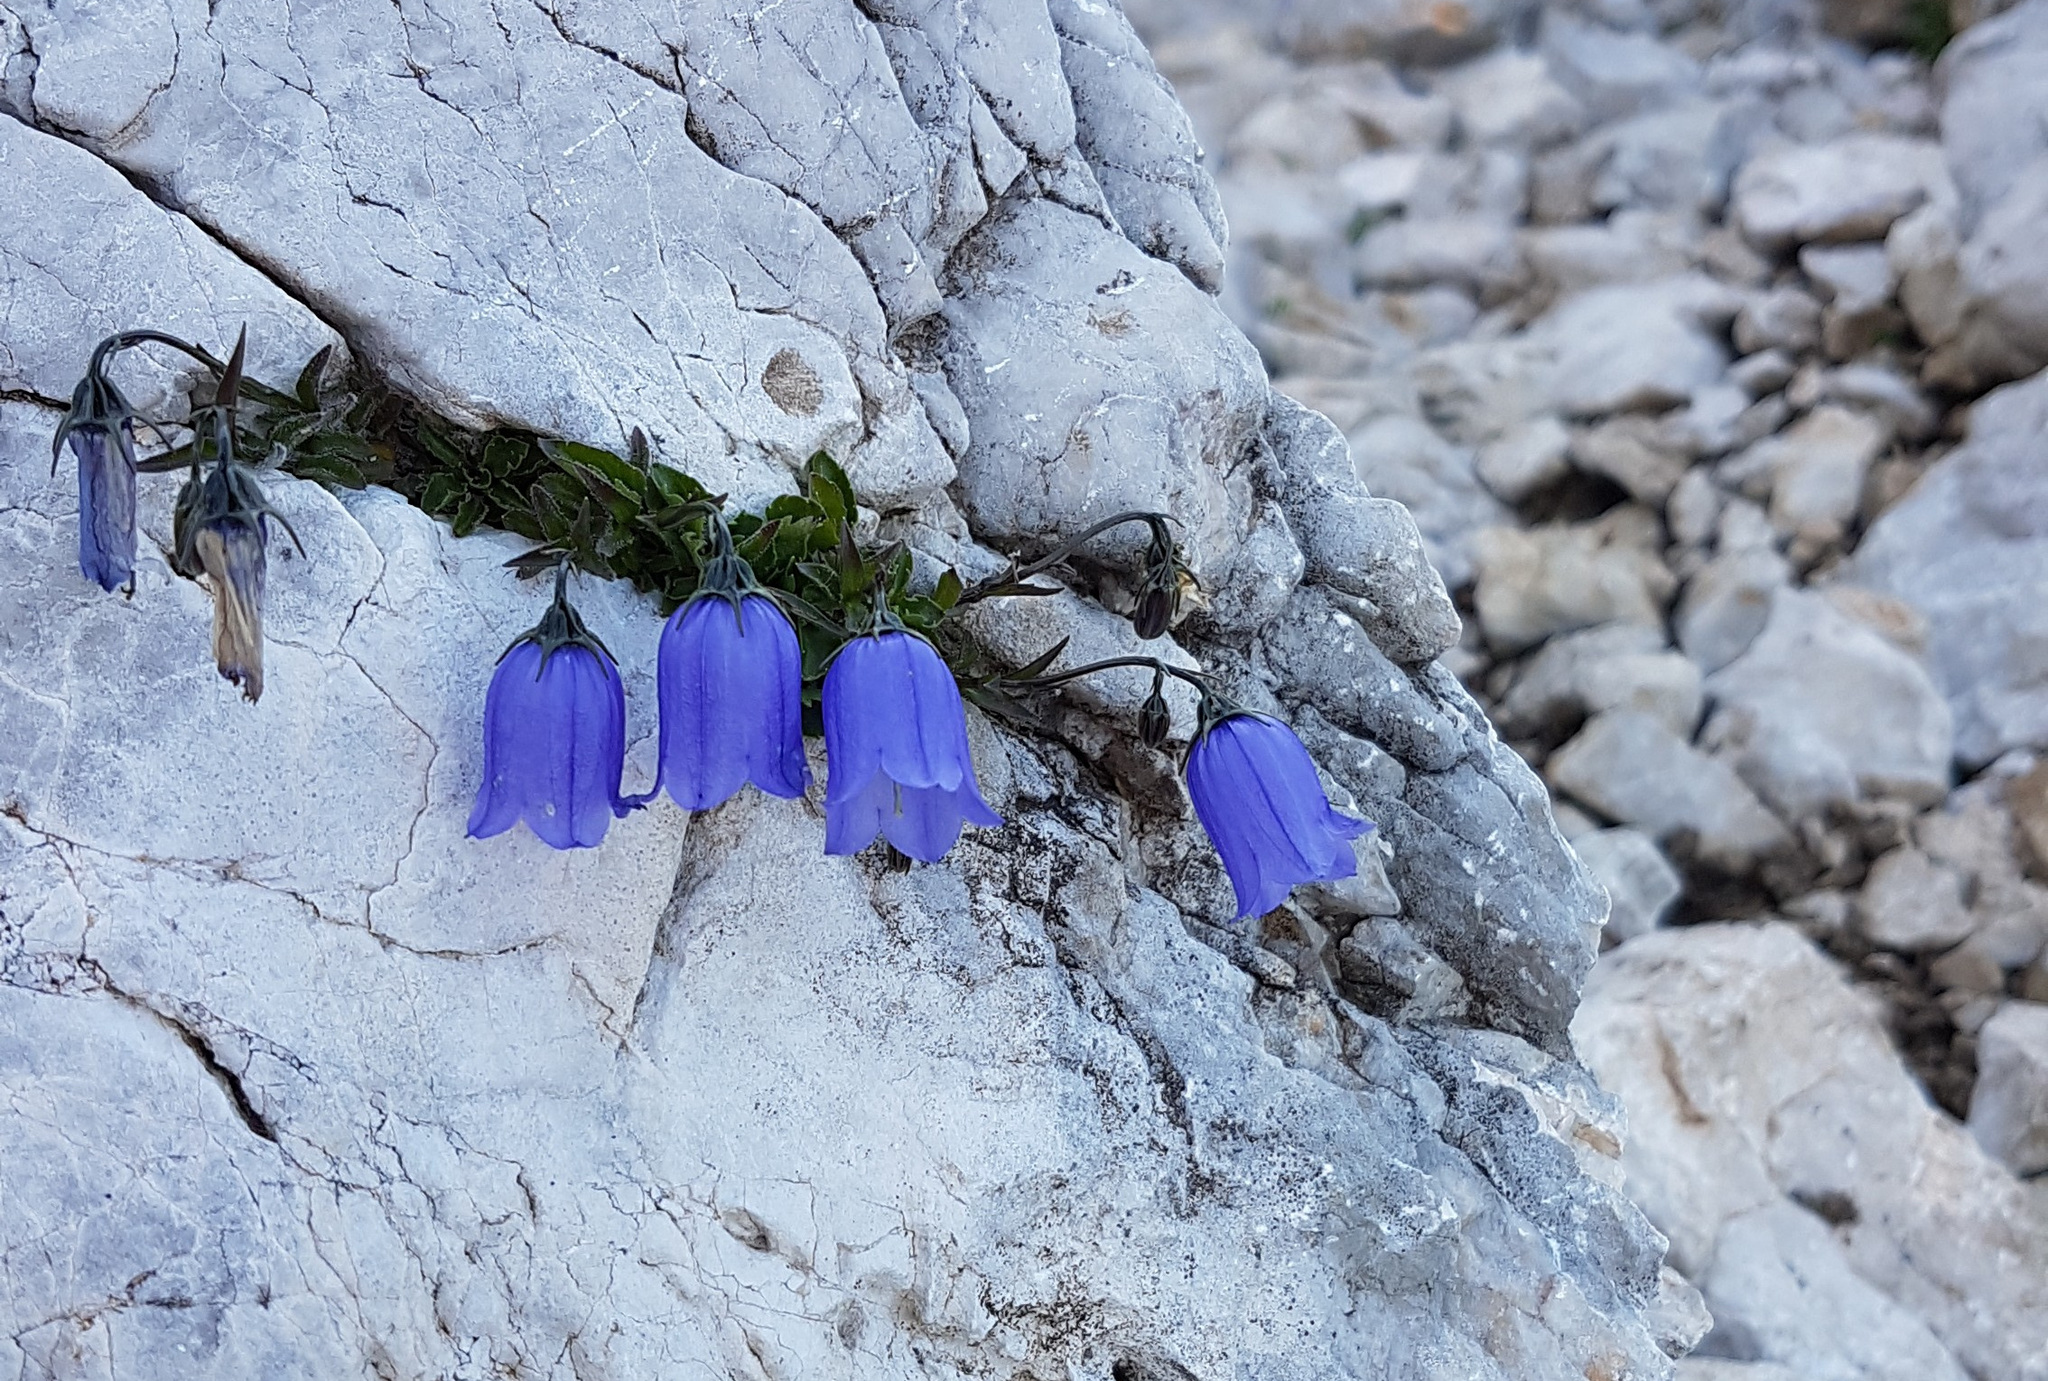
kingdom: Plantae
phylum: Tracheophyta
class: Magnoliopsida
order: Asterales
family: Campanulaceae
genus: Campanula
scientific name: Campanula cochleariifolia
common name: Fairies'-thimbles
